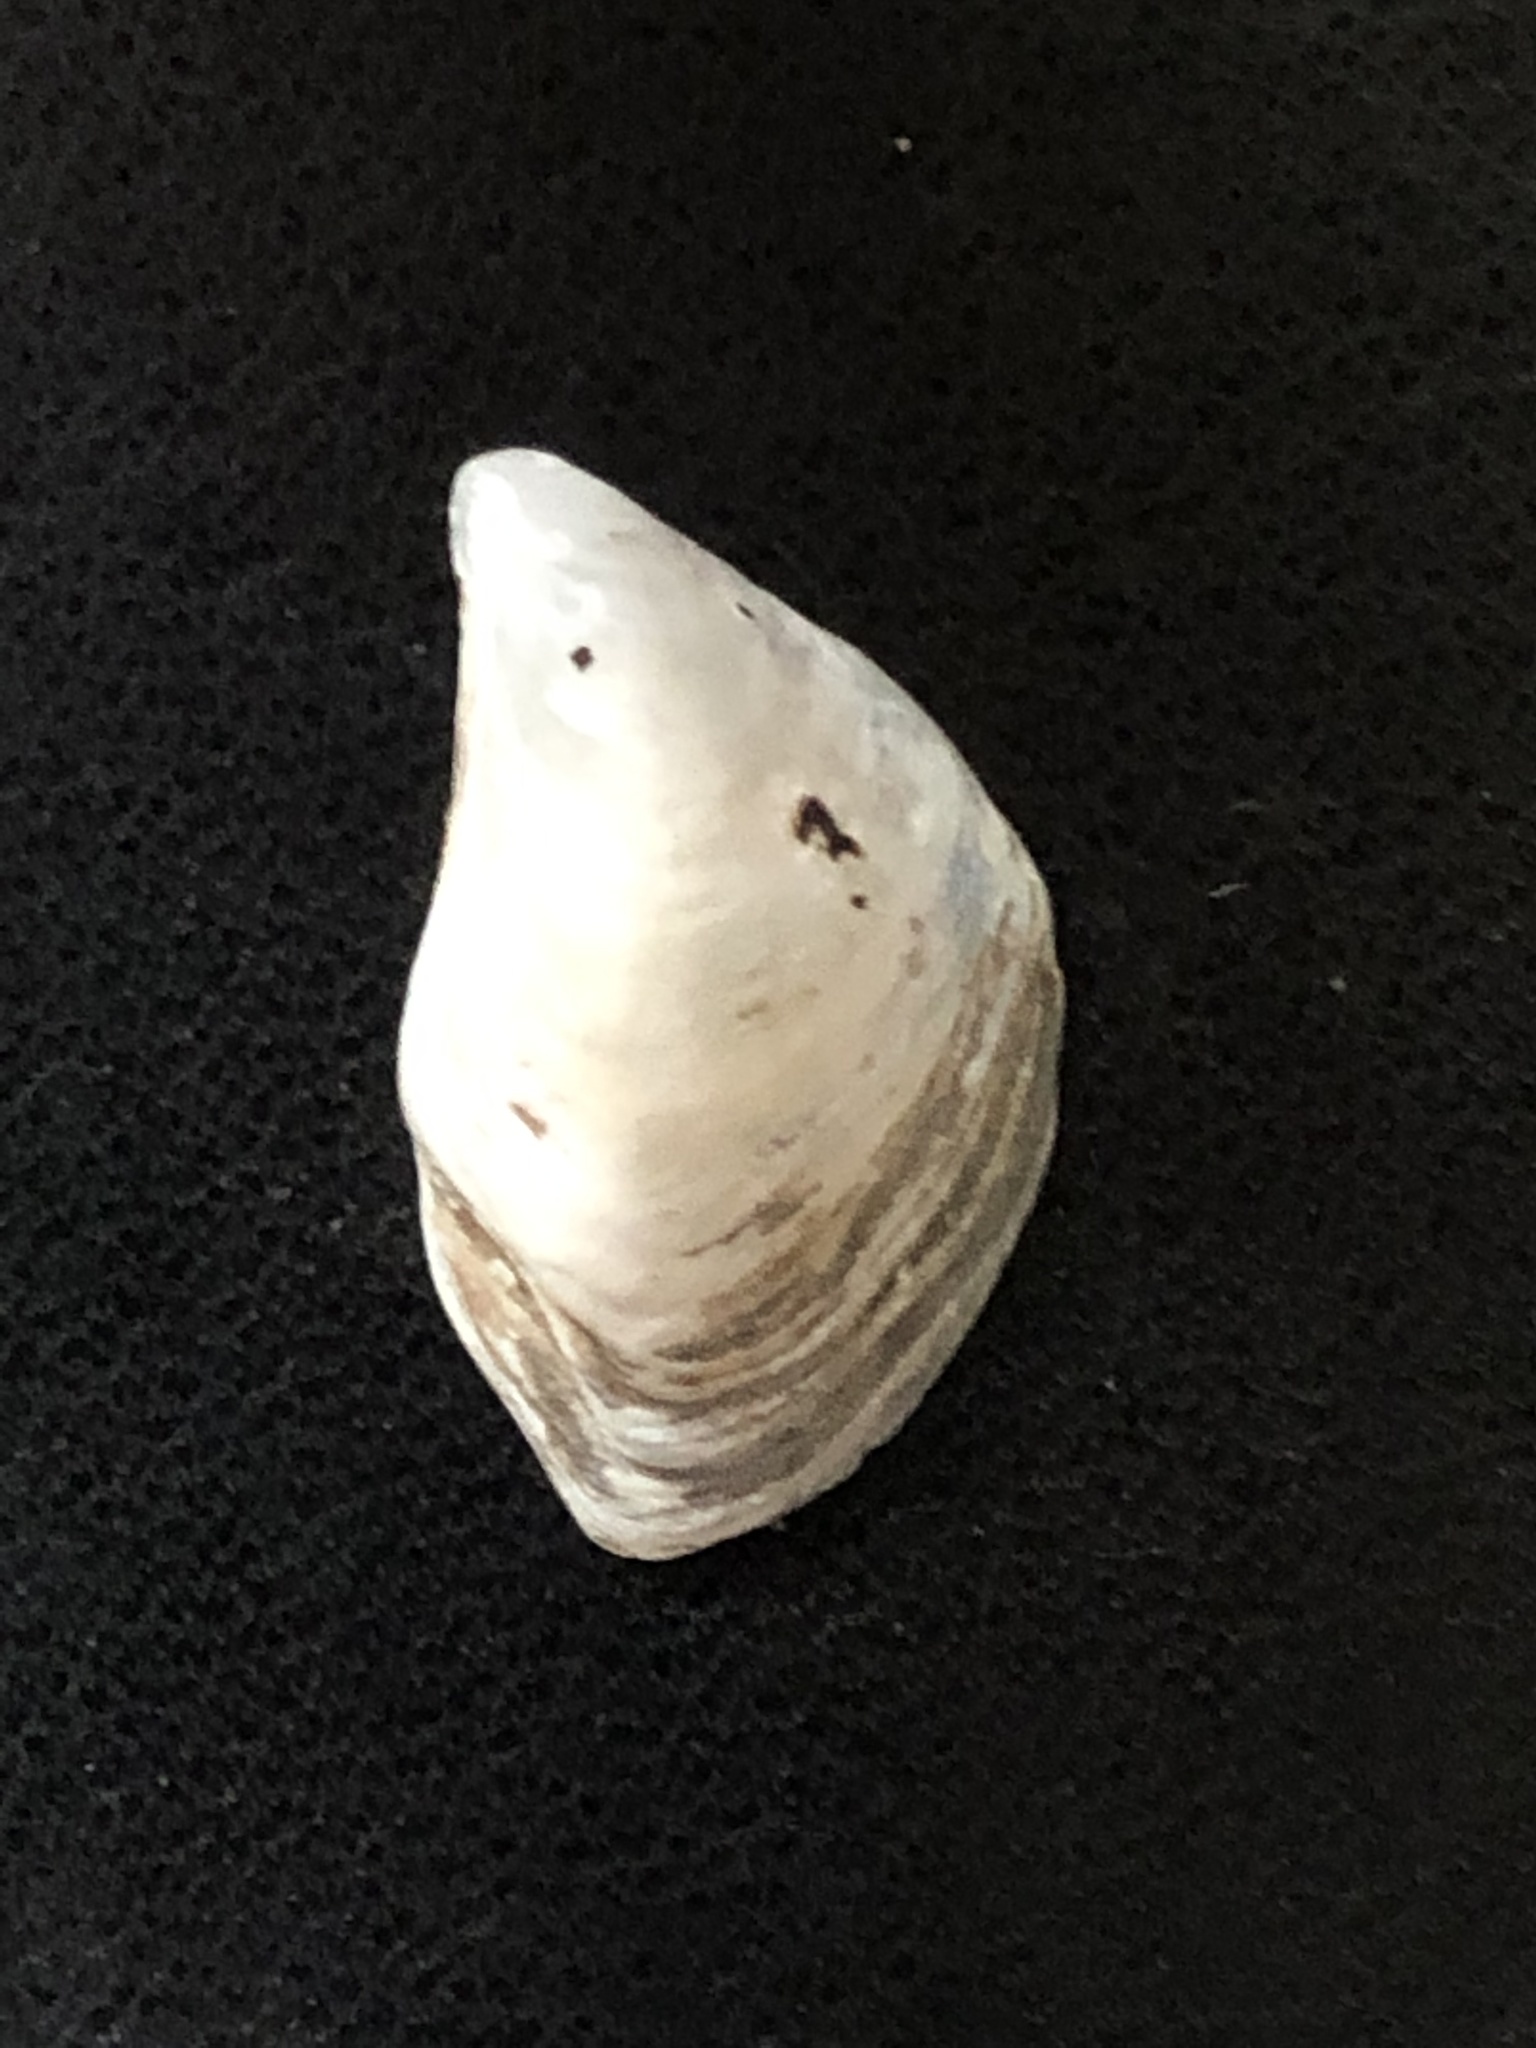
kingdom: Animalia
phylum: Mollusca
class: Bivalvia
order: Myida
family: Dreissenidae
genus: Dreissena
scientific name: Dreissena bugensis
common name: Quagga mussel
